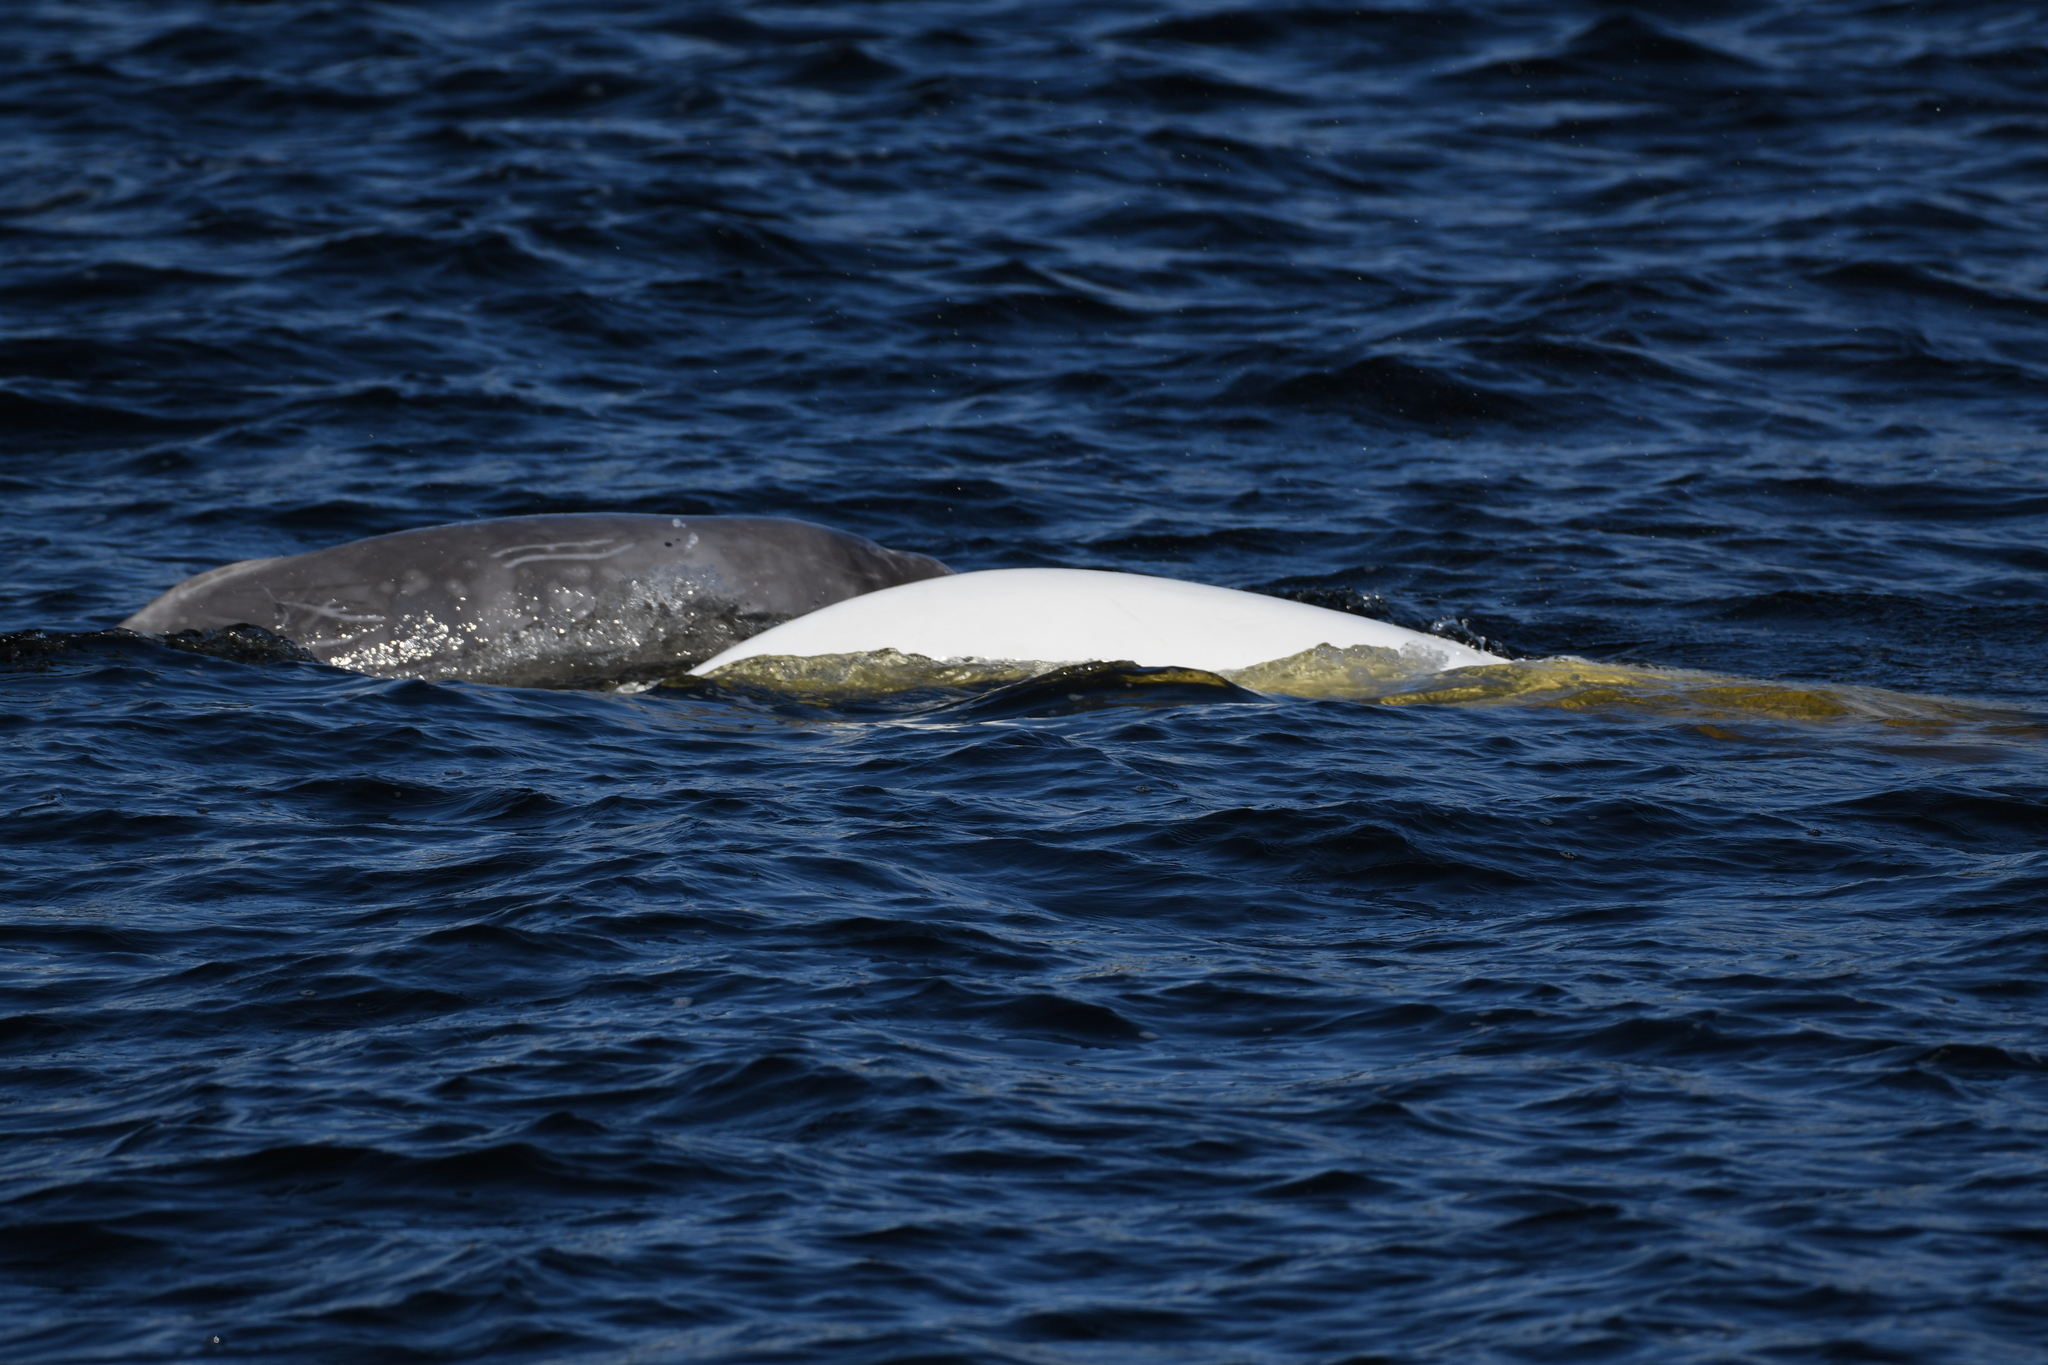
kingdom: Animalia
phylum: Chordata
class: Mammalia
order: Cetacea
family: Monodontidae
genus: Delphinapterus
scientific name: Delphinapterus leucas
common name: Beluga
